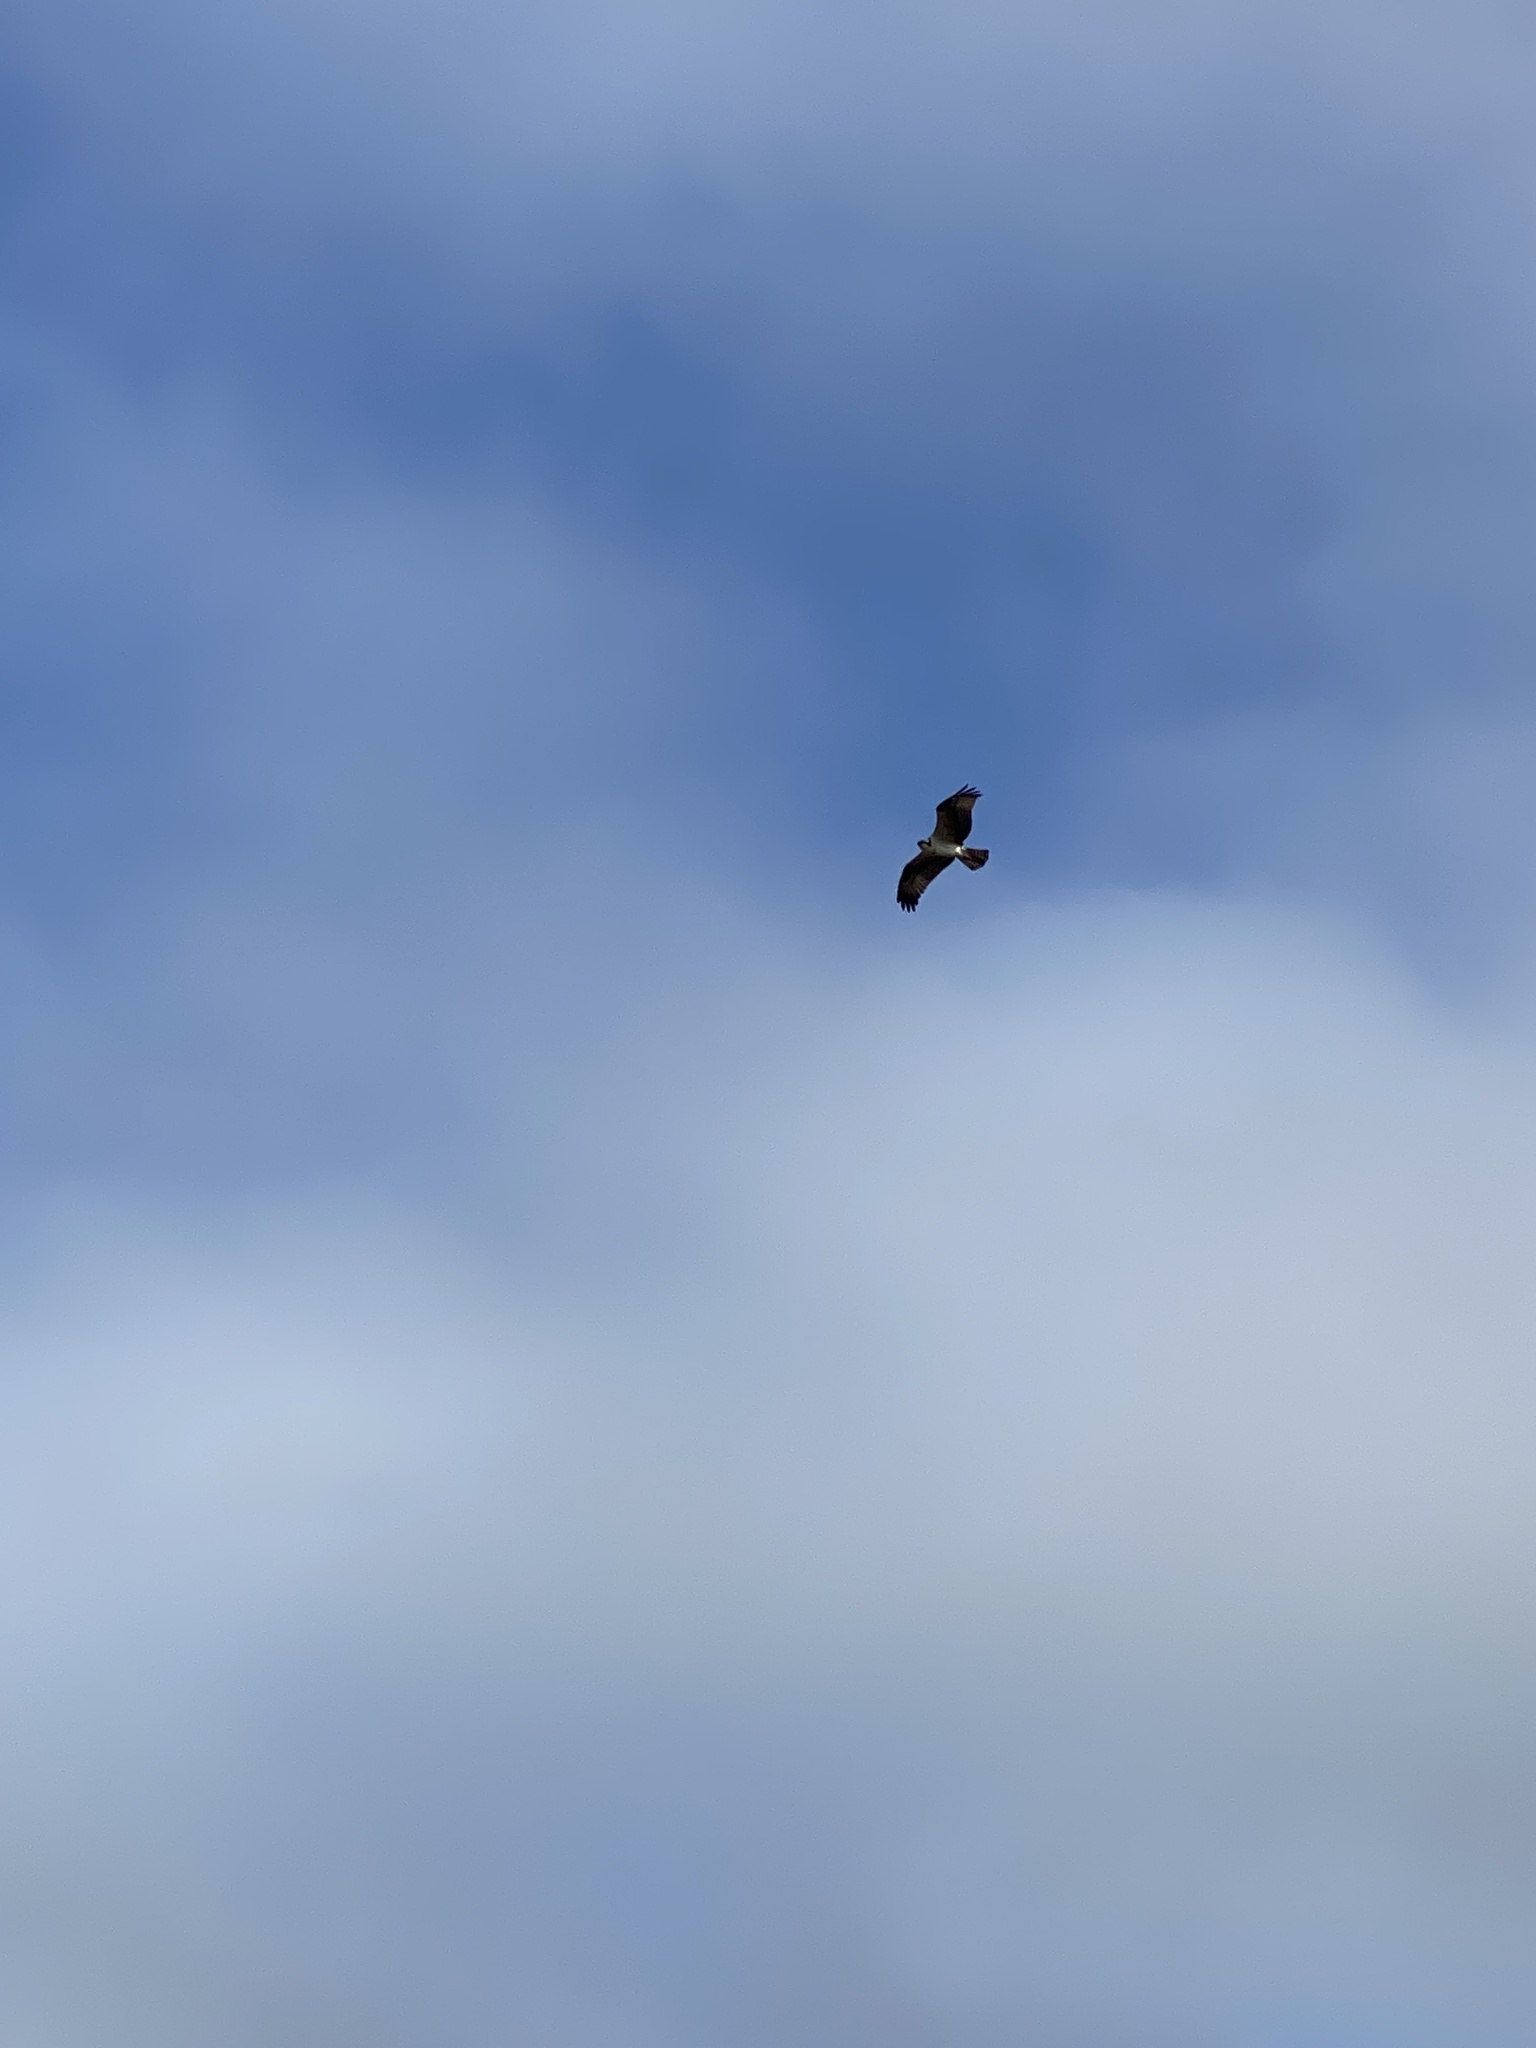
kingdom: Animalia
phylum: Chordata
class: Aves
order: Accipitriformes
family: Pandionidae
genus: Pandion
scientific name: Pandion haliaetus
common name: Osprey
